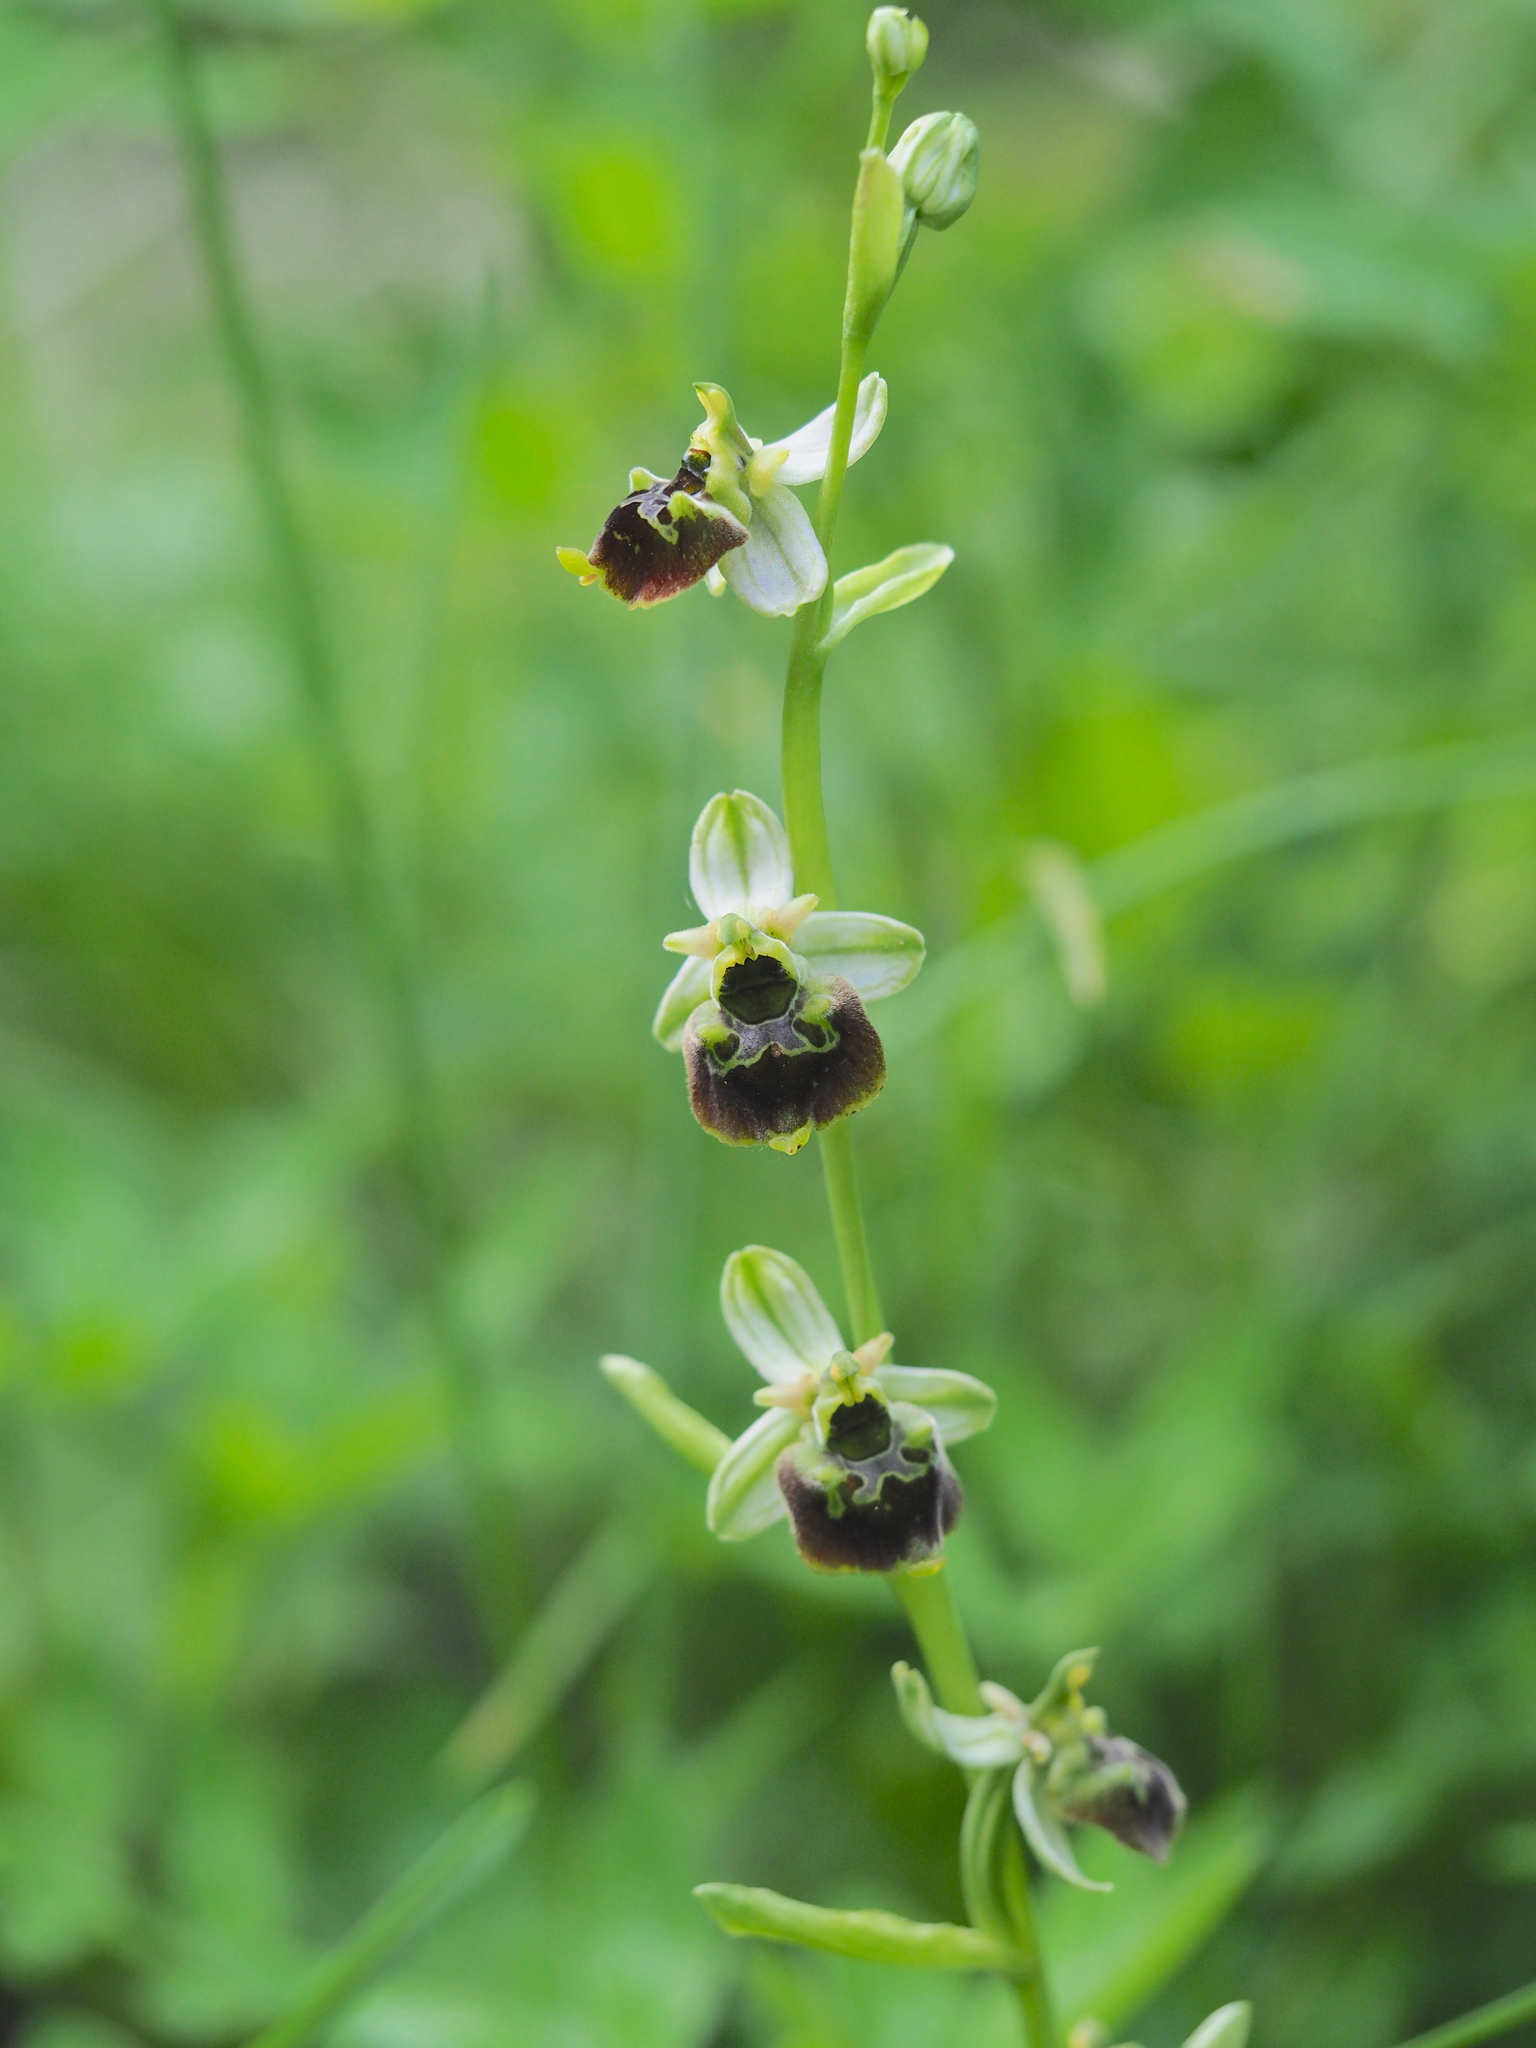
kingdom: Plantae
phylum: Tracheophyta
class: Liliopsida
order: Asparagales
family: Orchidaceae
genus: Ophrys
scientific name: Ophrys holosericea
